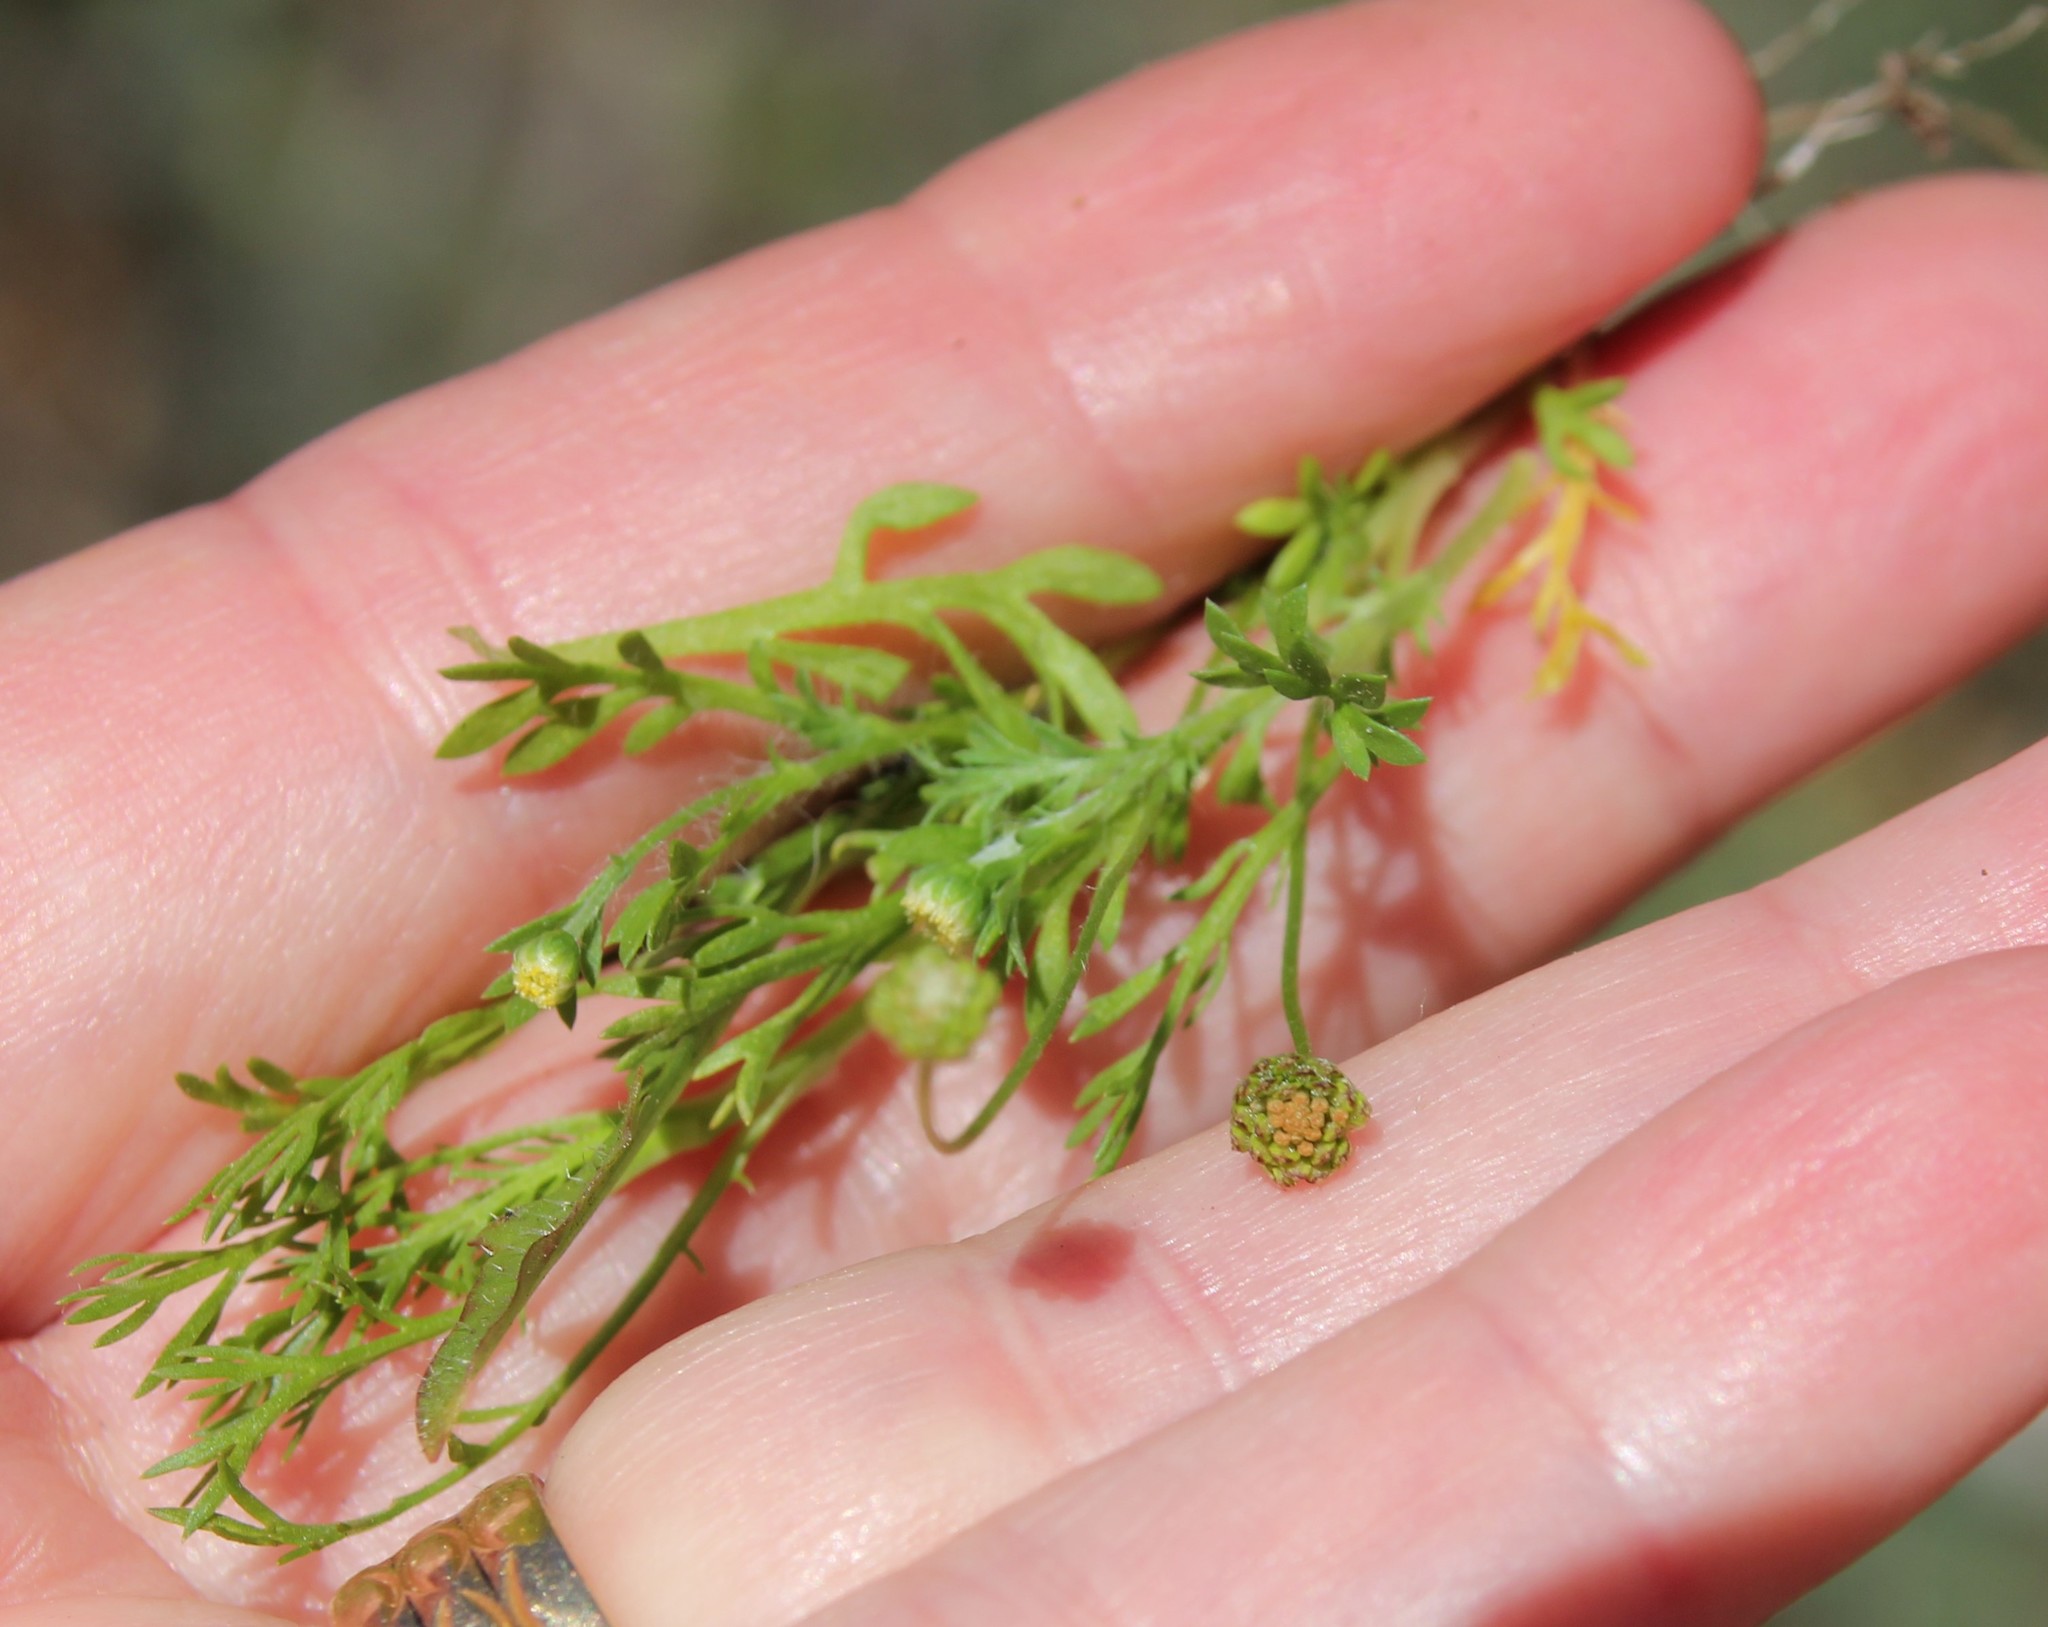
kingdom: Plantae
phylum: Tracheophyta
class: Magnoliopsida
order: Asterales
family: Asteraceae
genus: Cotula
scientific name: Cotula australis
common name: Australian waterbuttons
